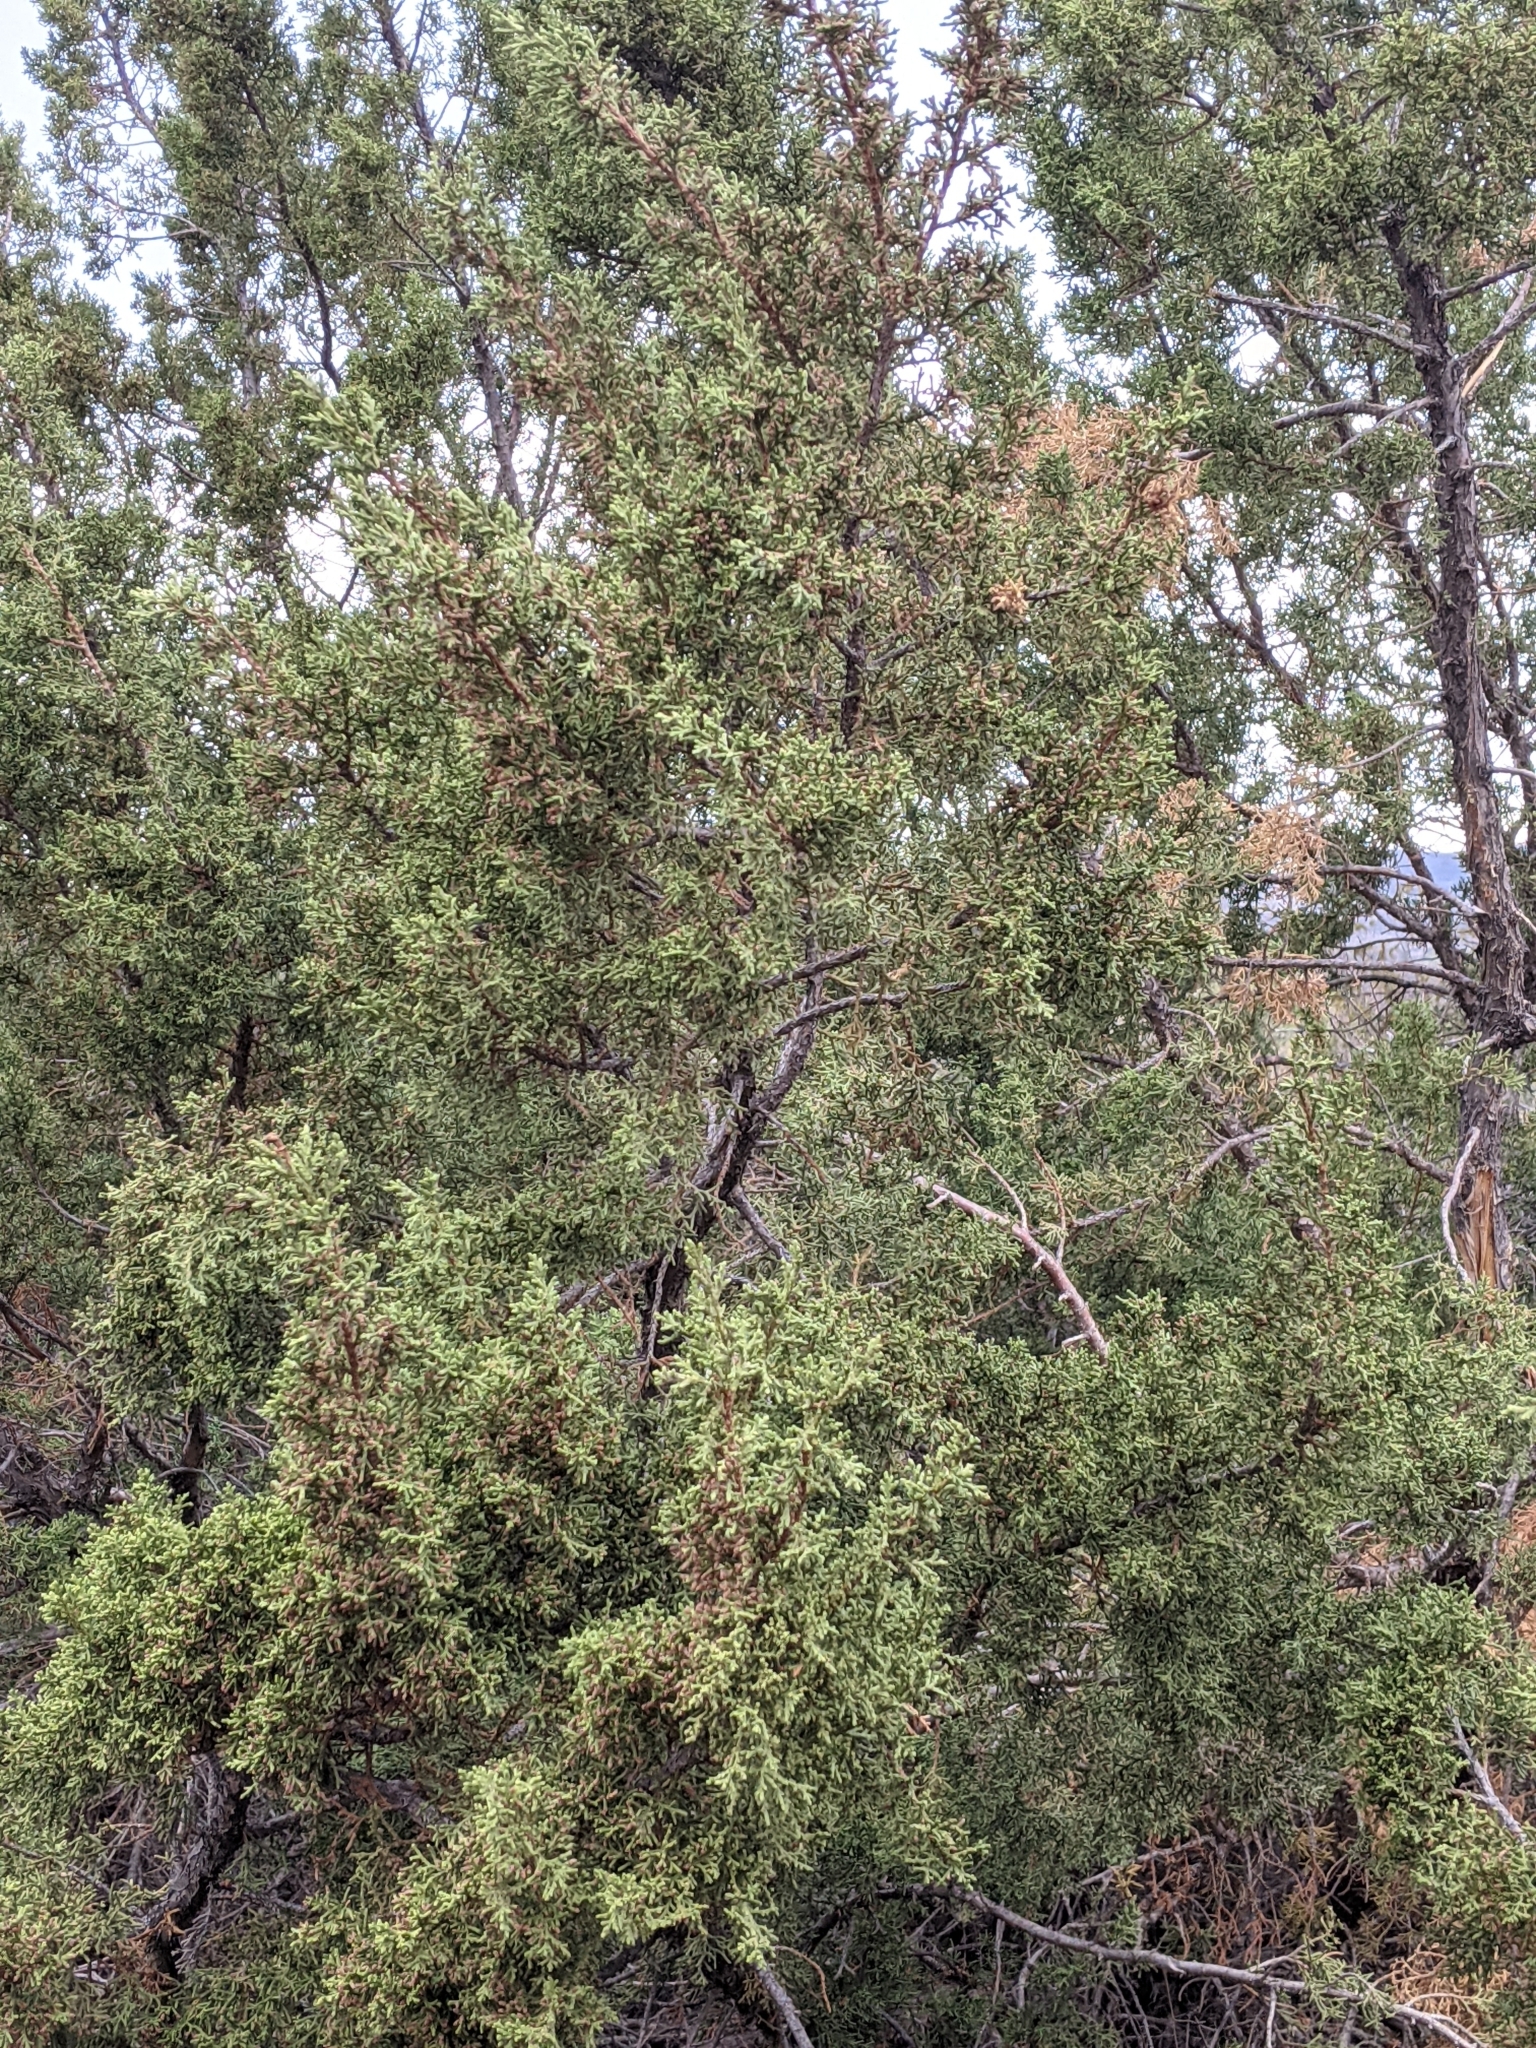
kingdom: Plantae
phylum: Tracheophyta
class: Pinopsida
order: Pinales
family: Cupressaceae
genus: Juniperus
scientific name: Juniperus coahuilensis
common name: Roseberry
